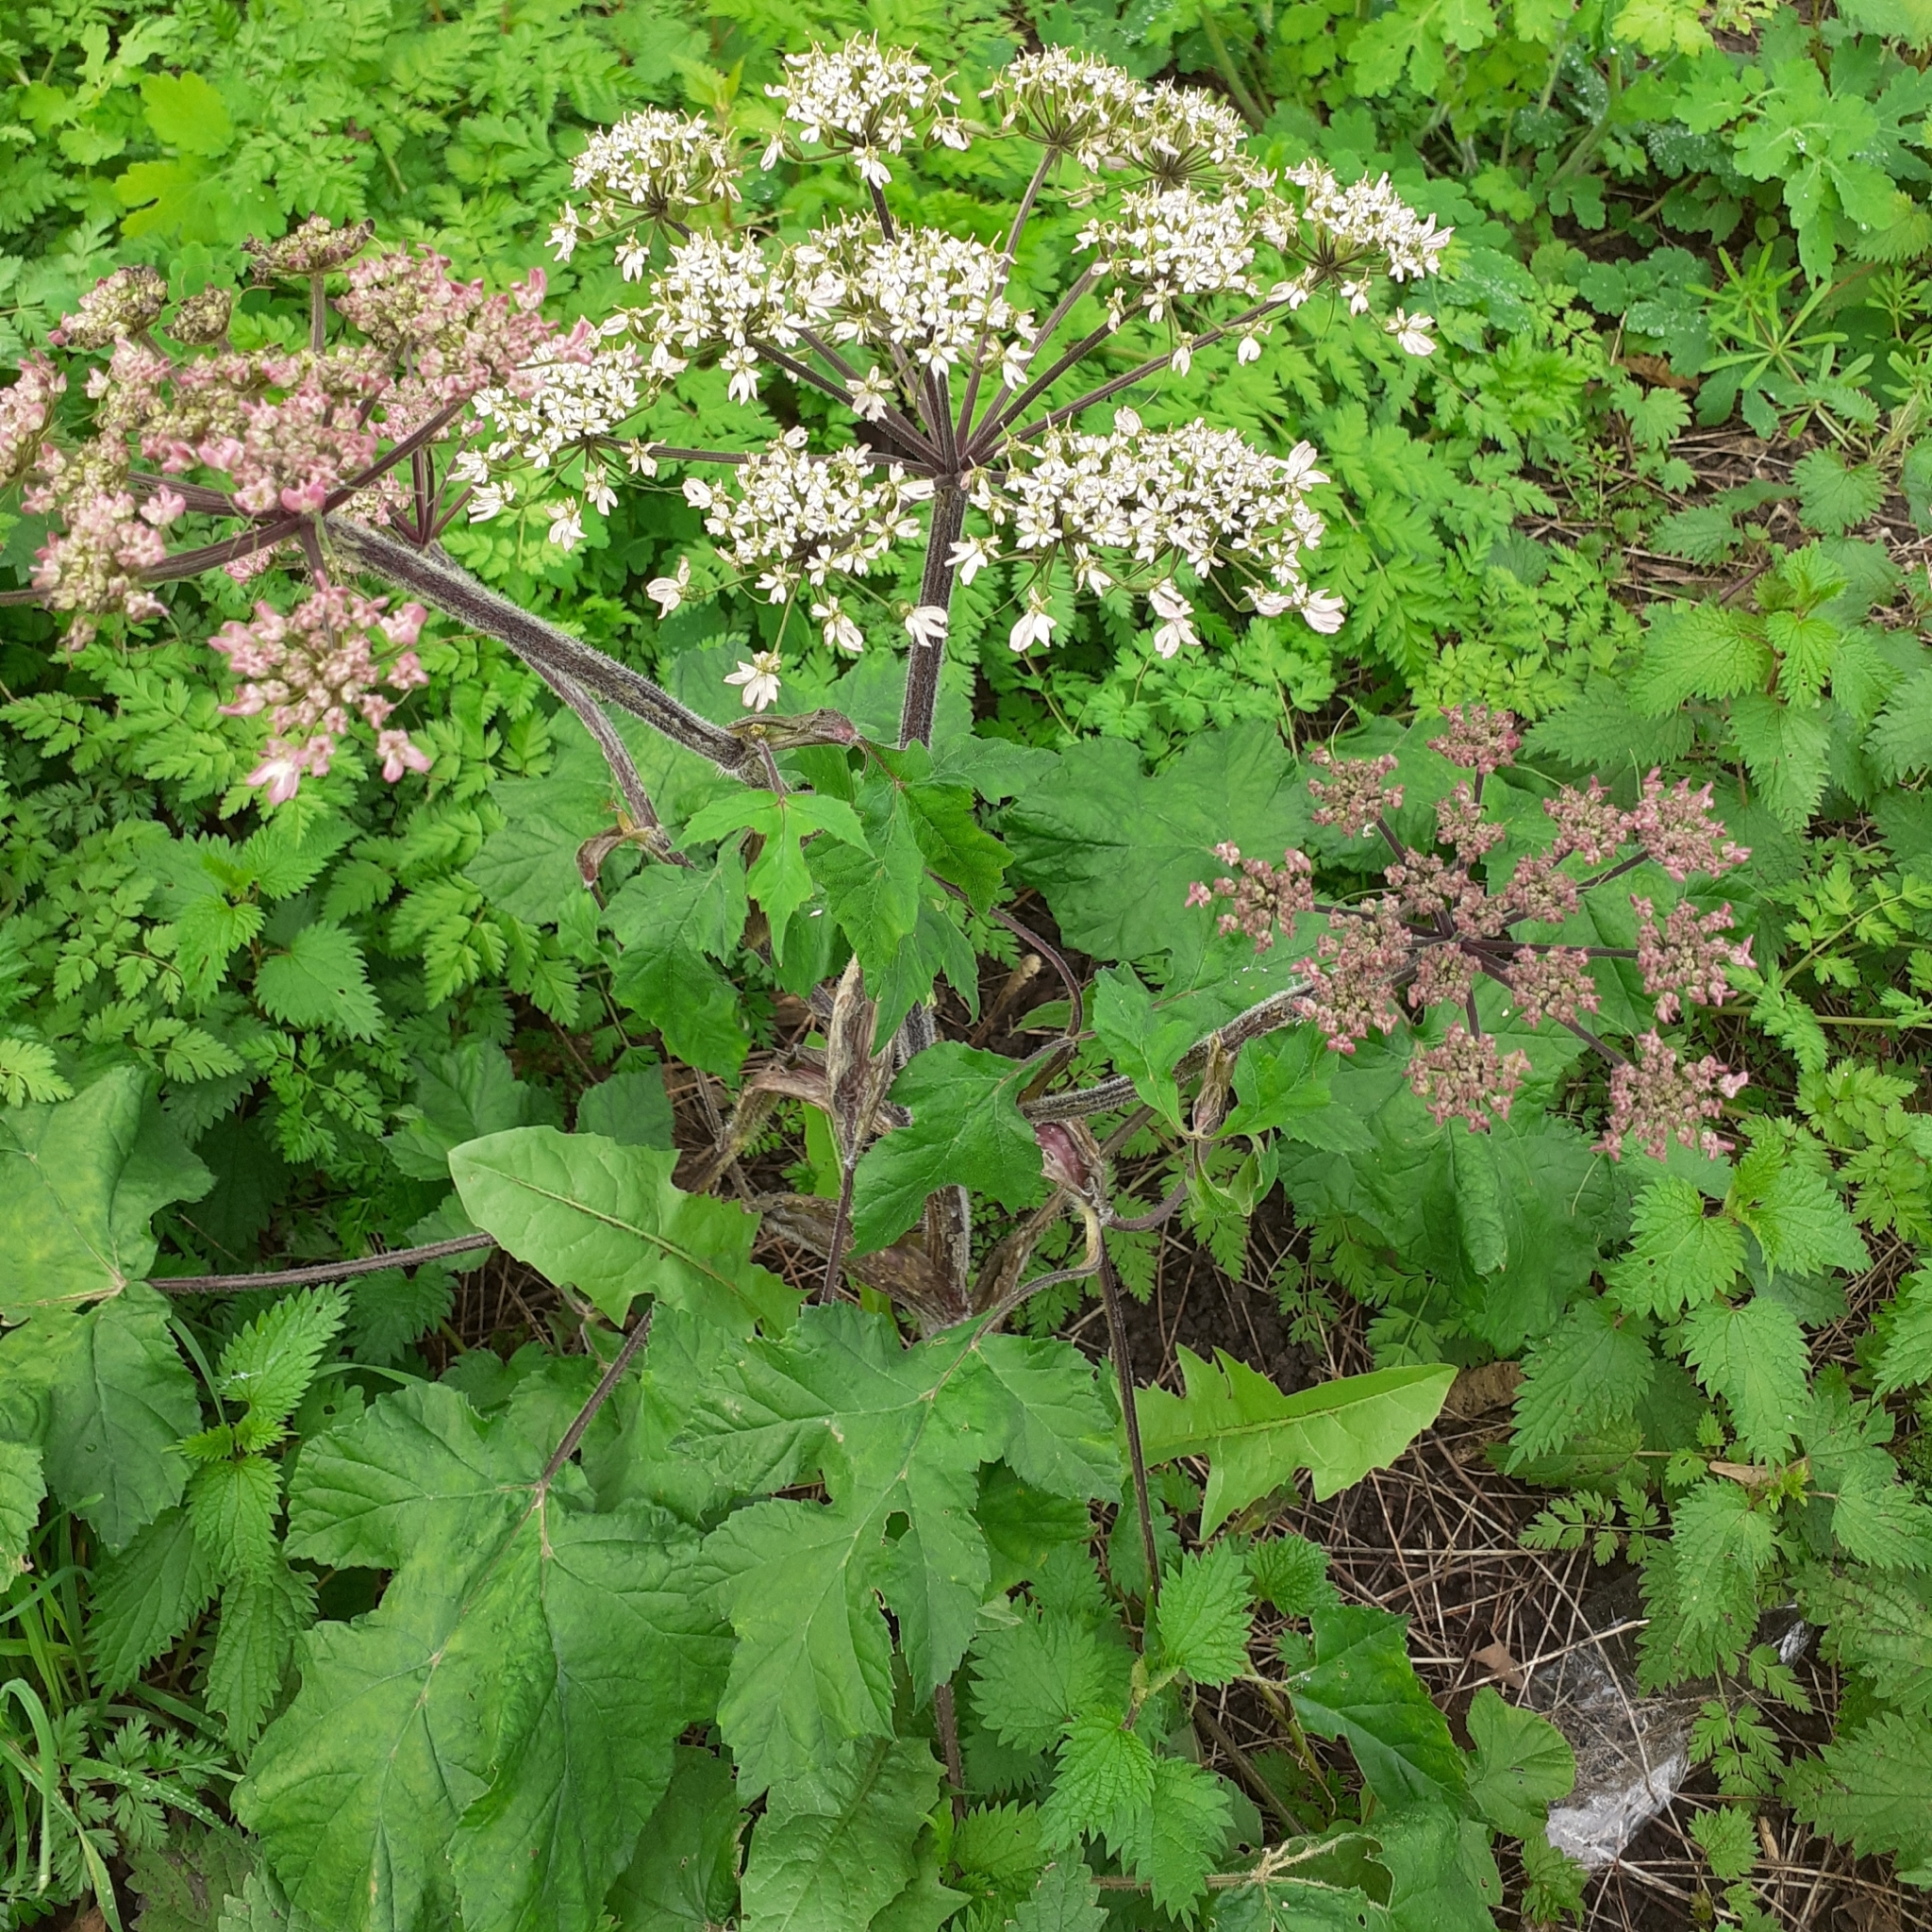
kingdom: Plantae
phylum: Tracheophyta
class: Magnoliopsida
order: Apiales
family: Apiaceae
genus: Heracleum
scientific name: Heracleum sphondylium
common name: Hogweed
